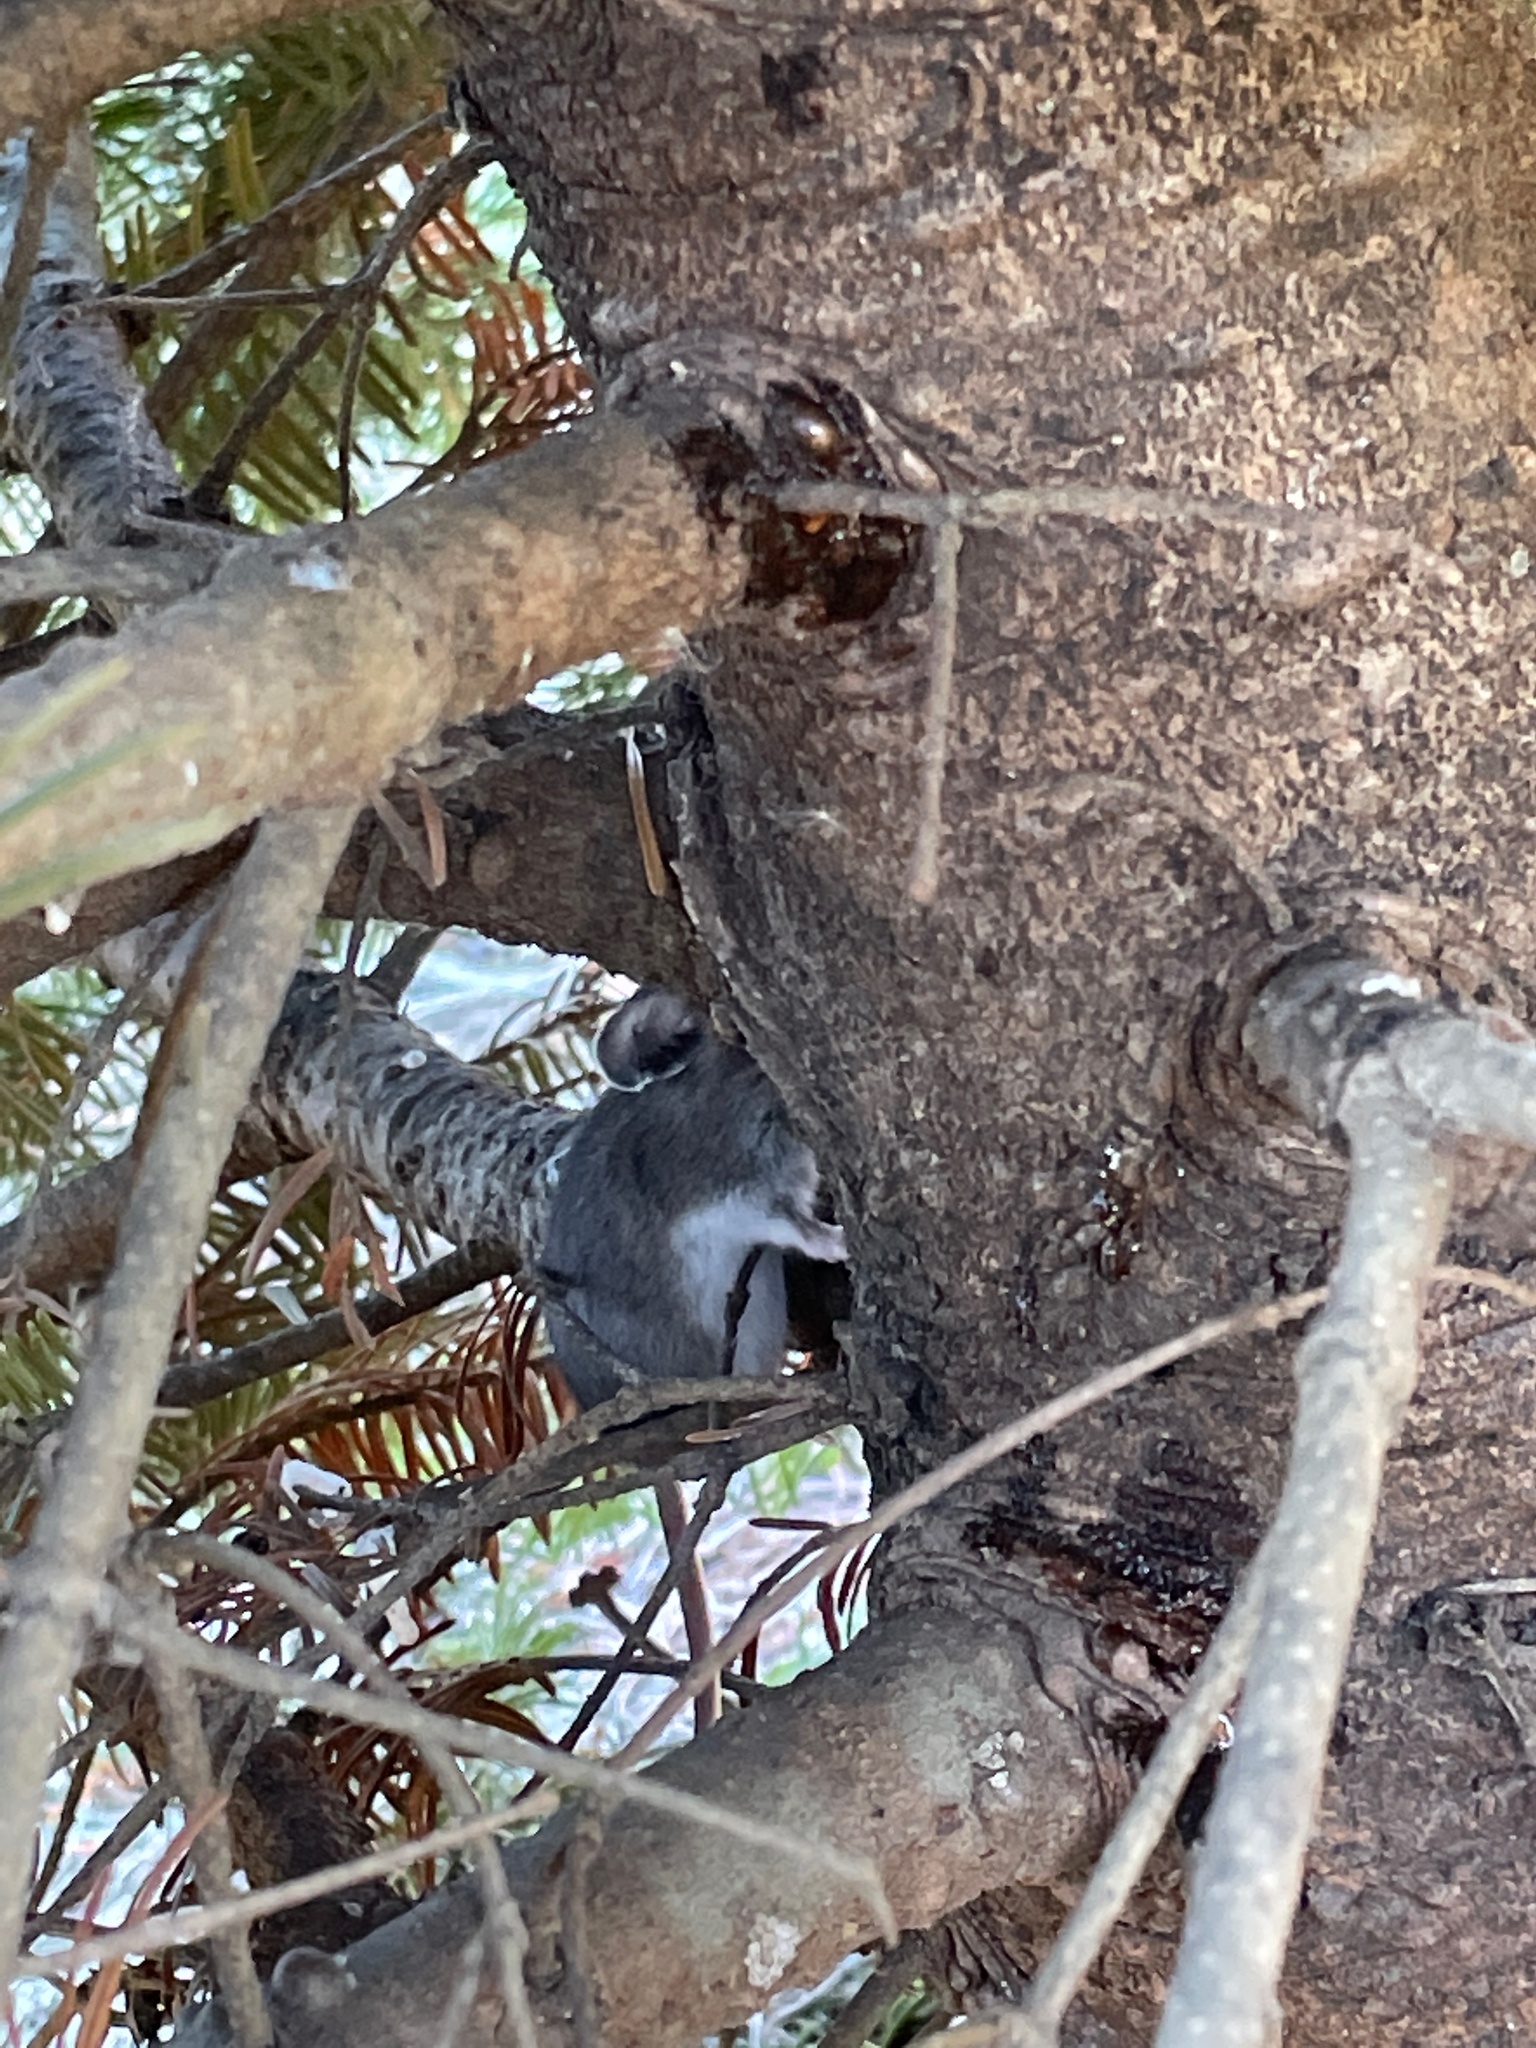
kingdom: Animalia
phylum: Chordata
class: Mammalia
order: Rodentia
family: Cricetidae
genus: Peromyscus
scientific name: Peromyscus maniculatus
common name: Deer mouse
